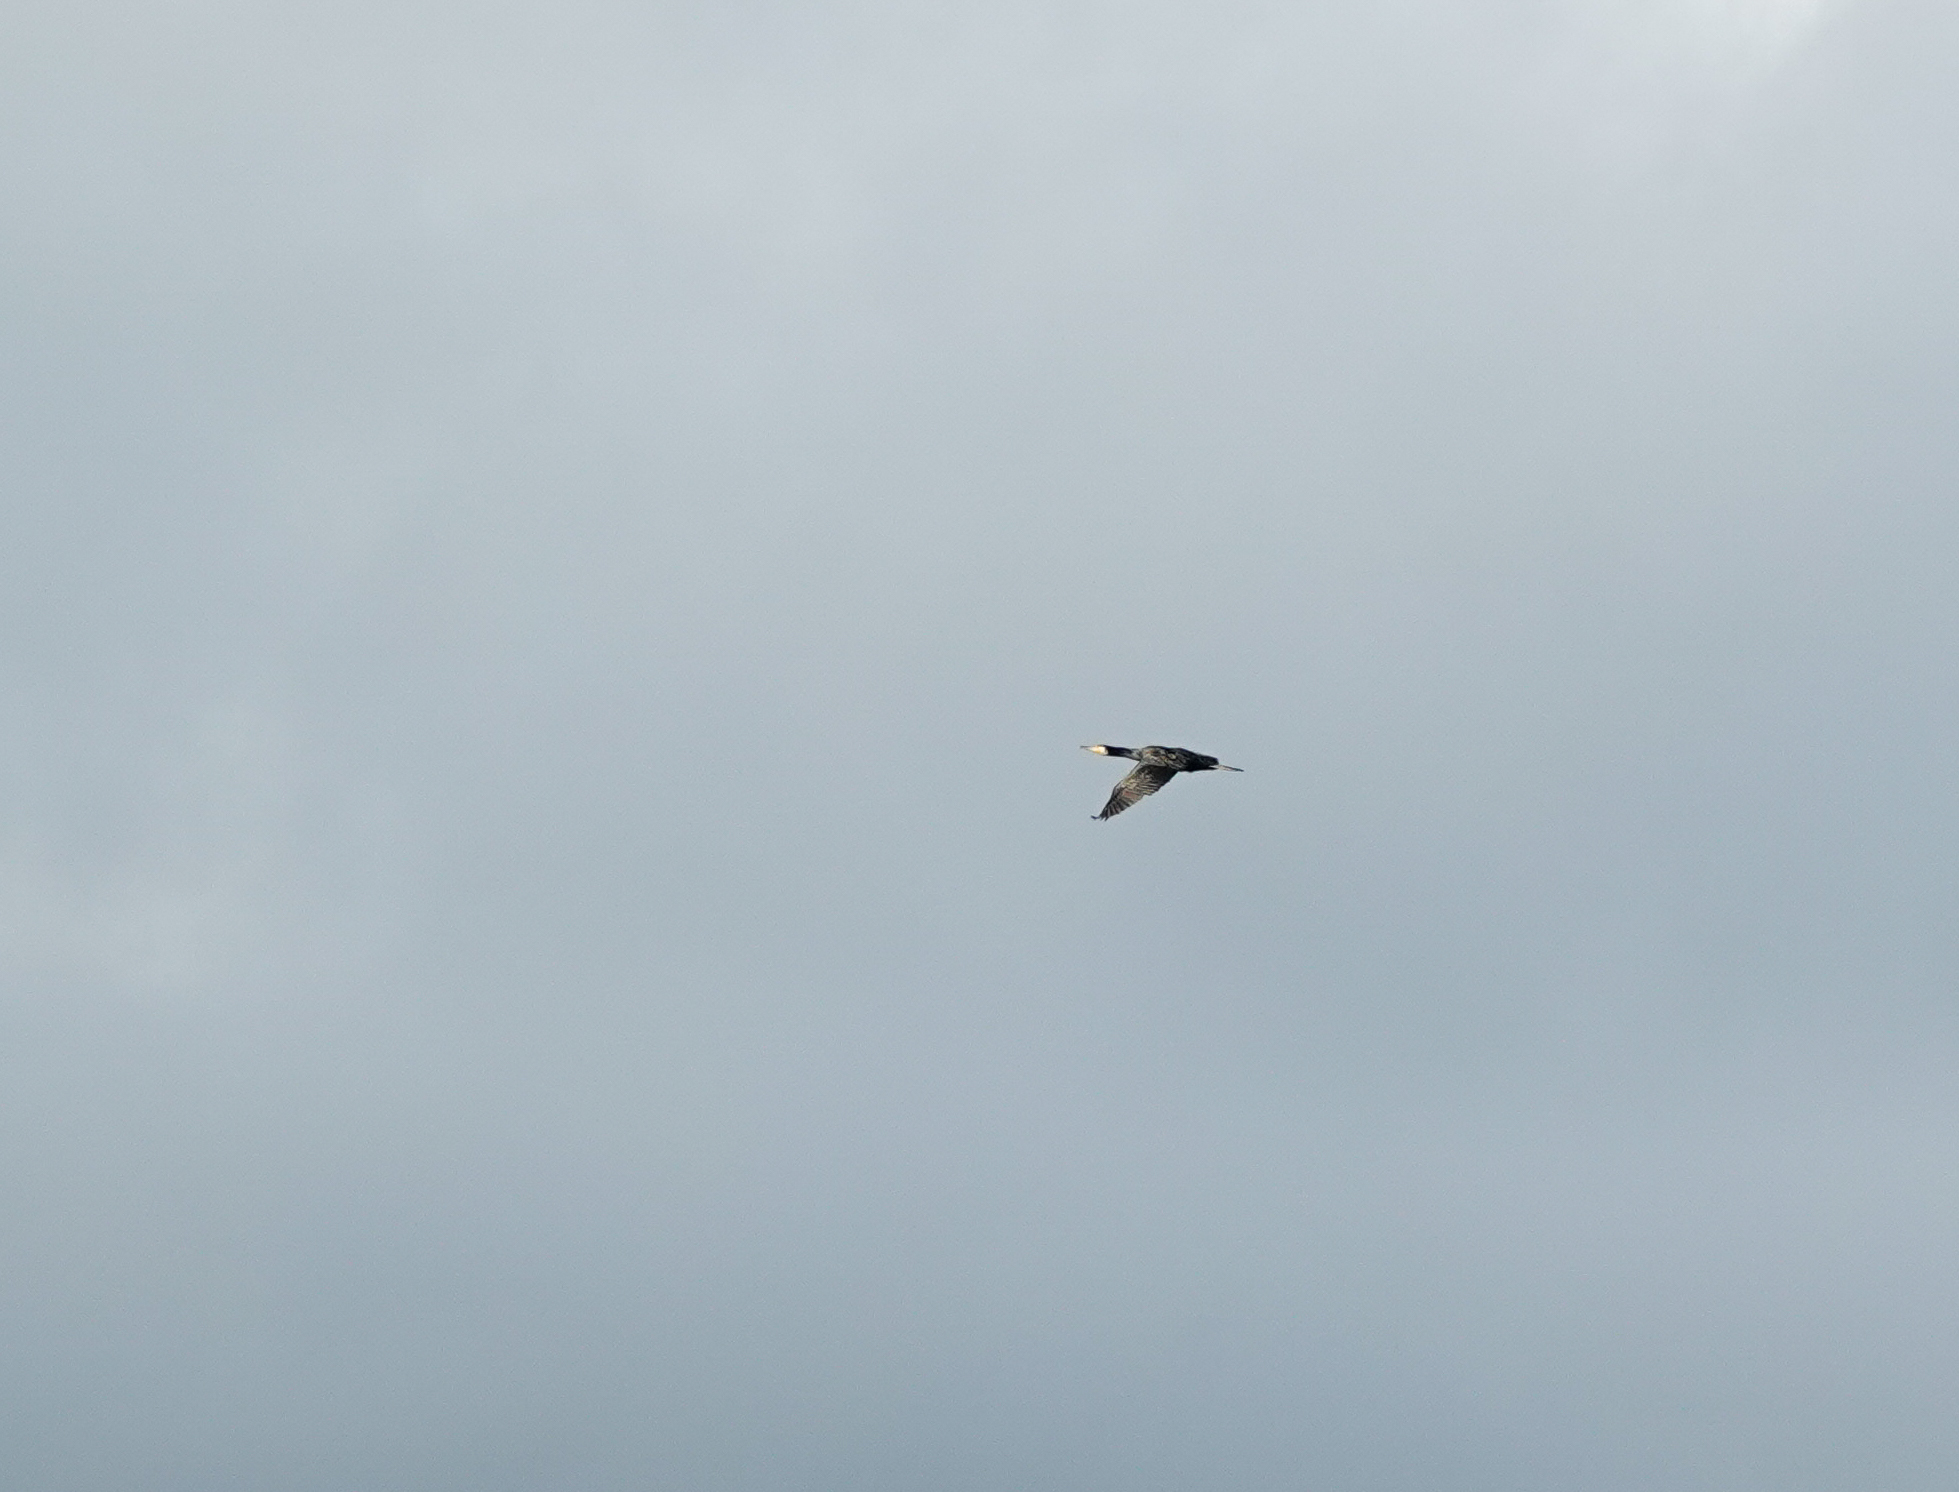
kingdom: Animalia
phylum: Chordata
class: Aves
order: Suliformes
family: Phalacrocoracidae
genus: Phalacrocorax
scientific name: Phalacrocorax carbo
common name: Great cormorant
